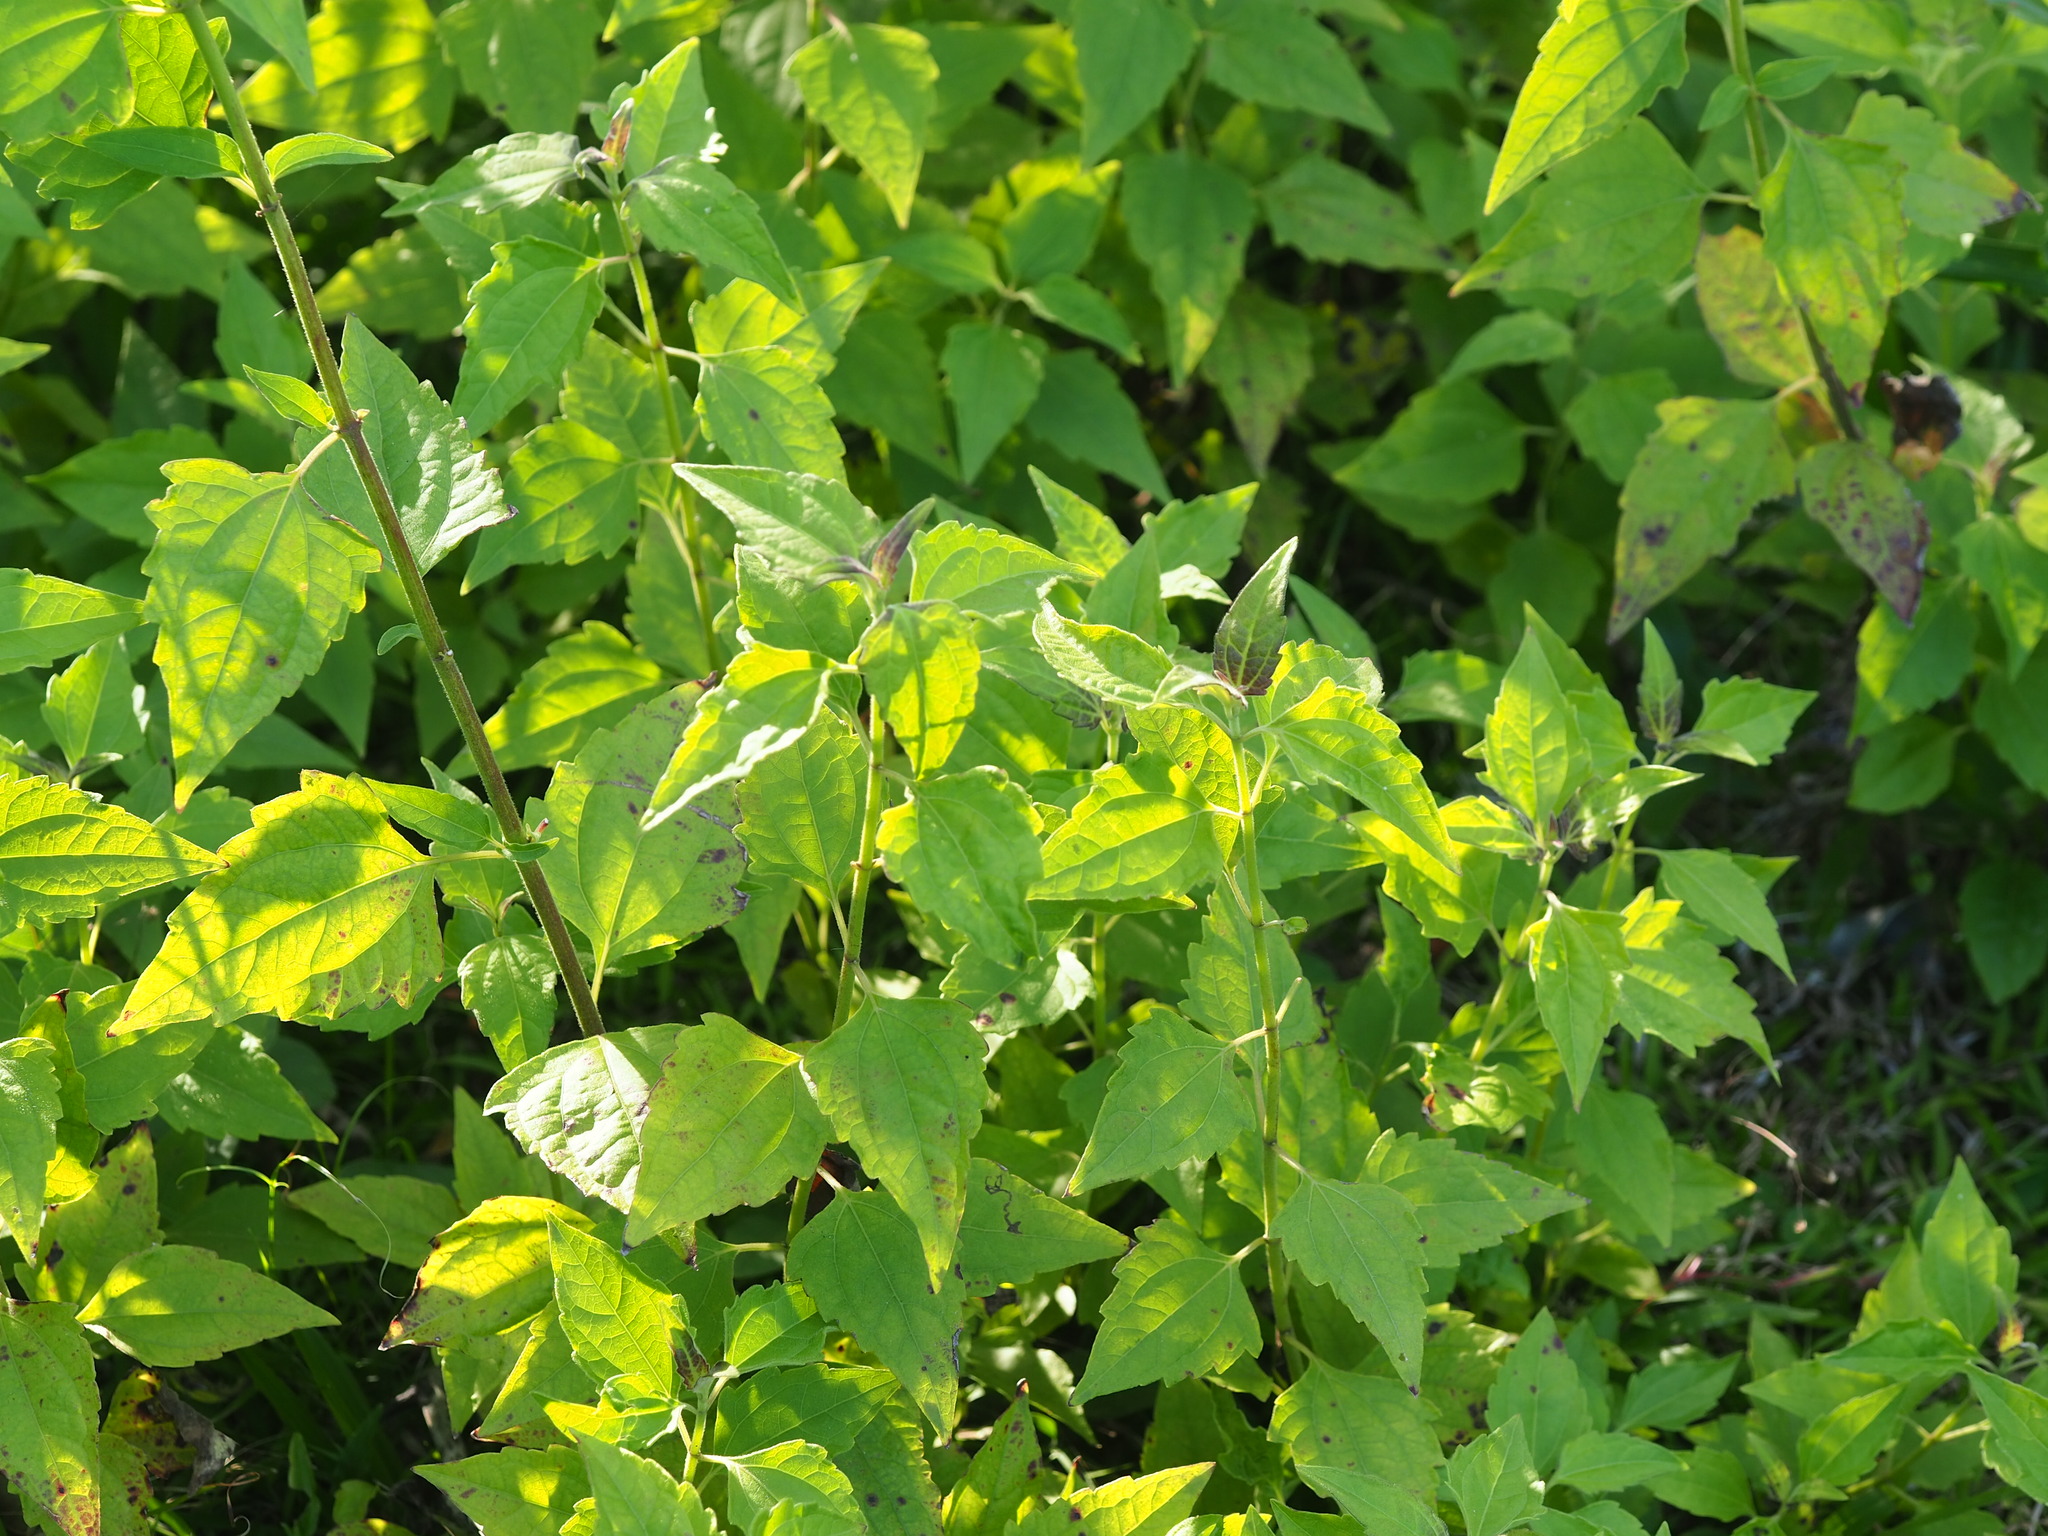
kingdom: Plantae
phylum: Tracheophyta
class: Magnoliopsida
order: Asterales
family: Asteraceae
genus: Chromolaena
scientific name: Chromolaena odorata
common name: Siamweed
